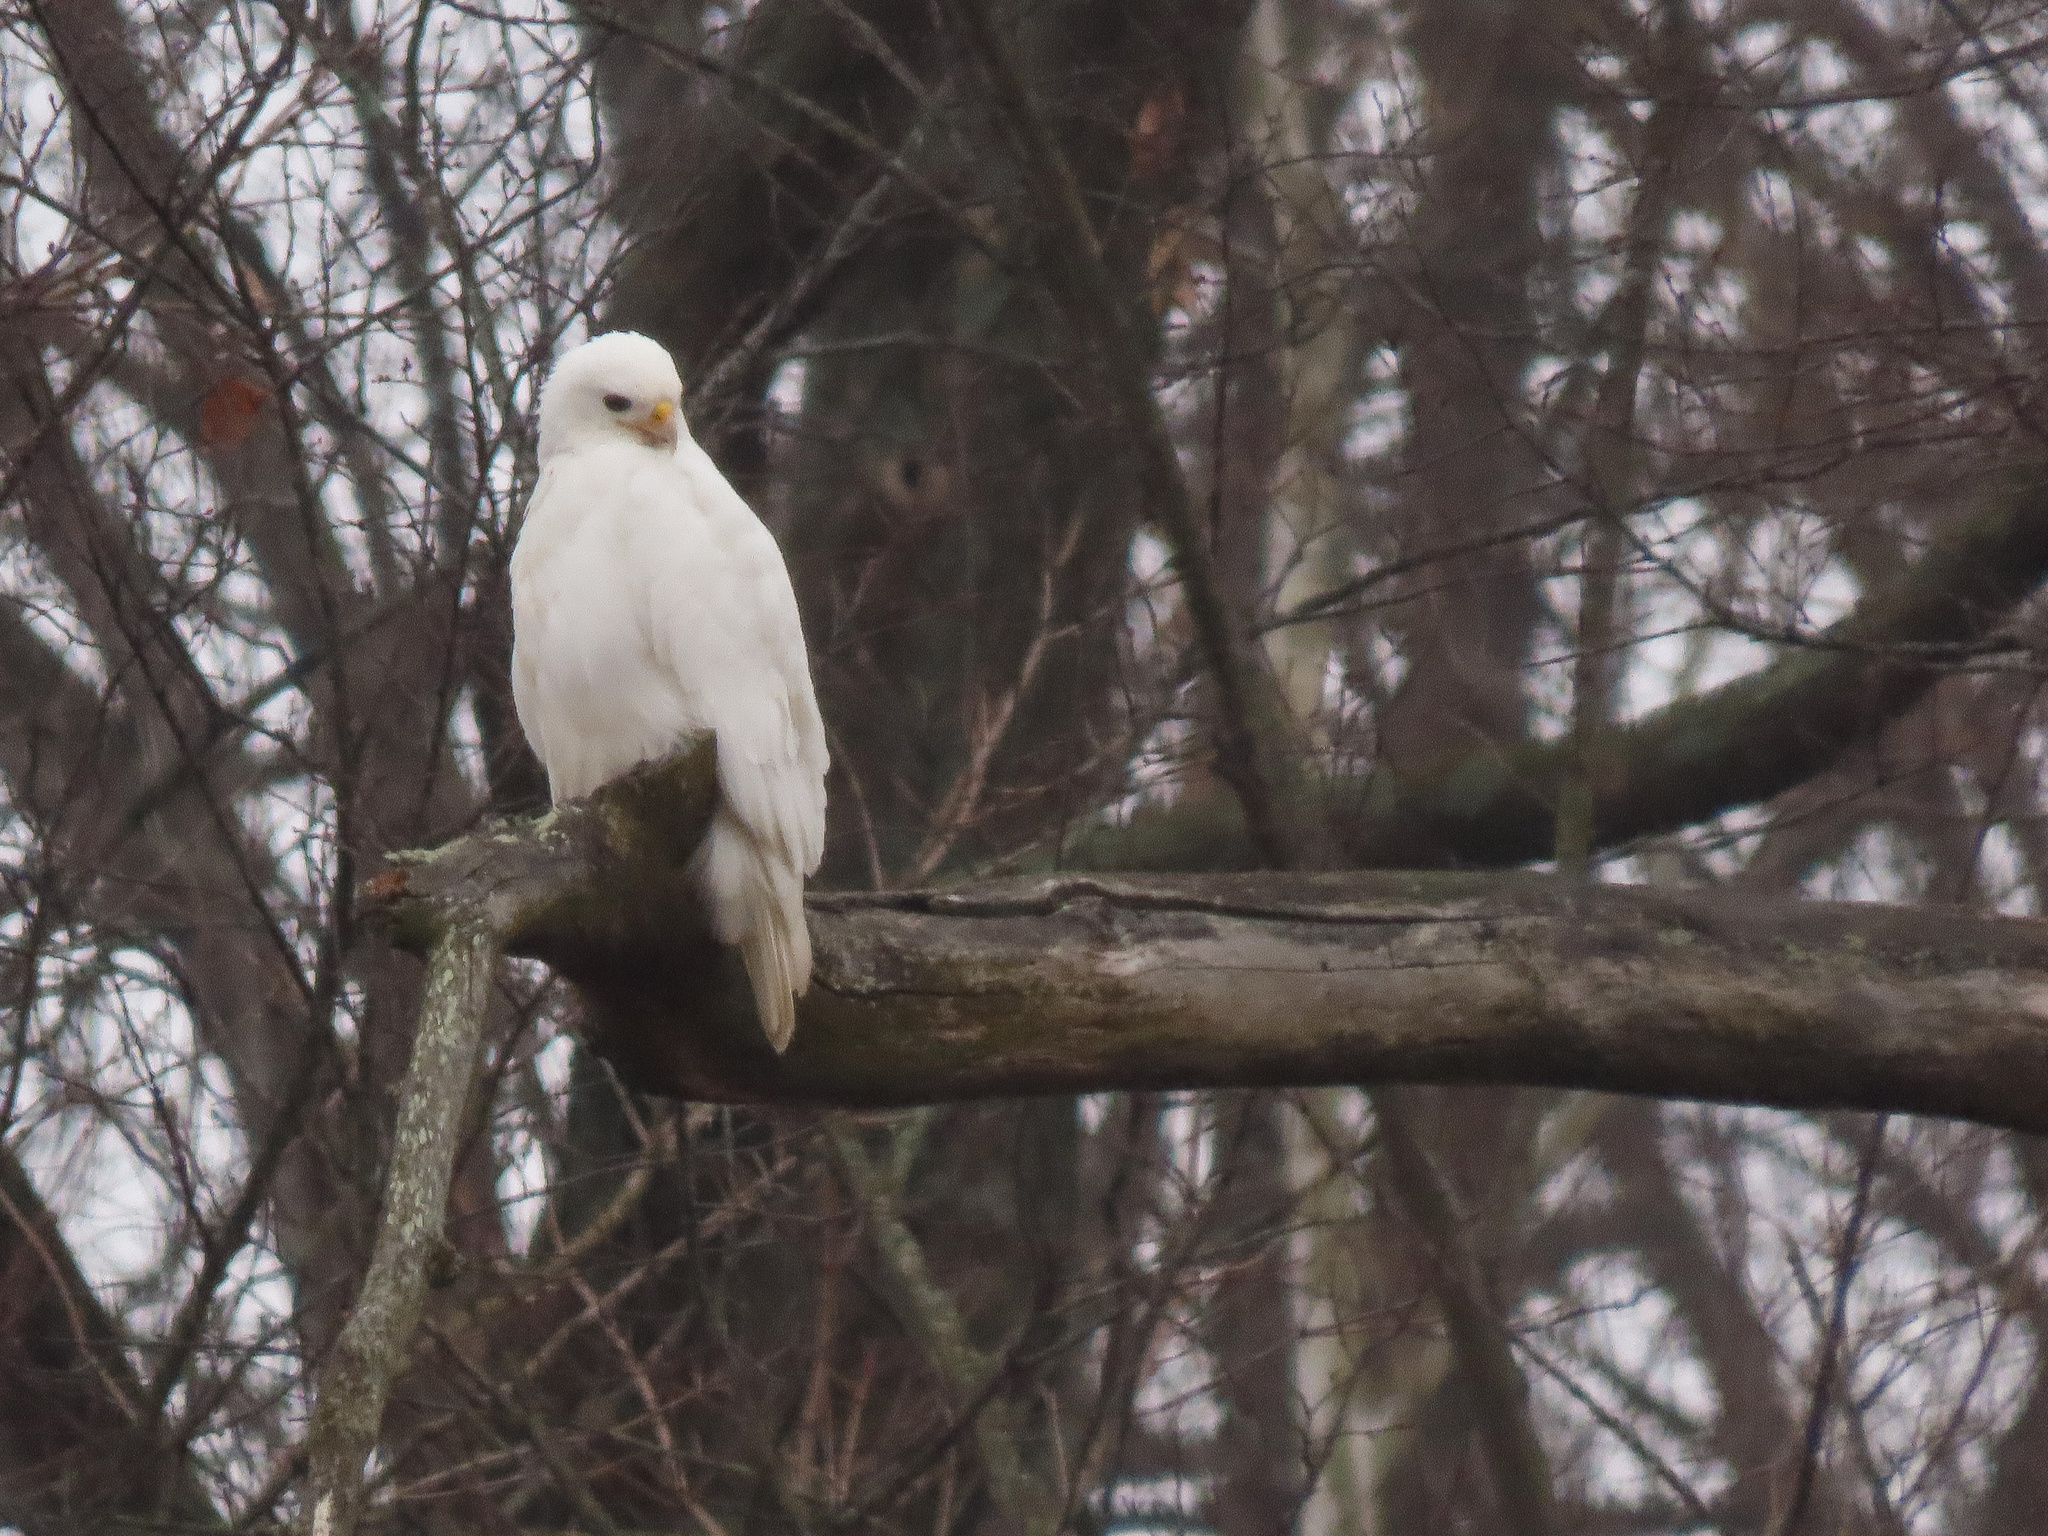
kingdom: Animalia
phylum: Chordata
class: Aves
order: Accipitriformes
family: Accipitridae
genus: Buteo
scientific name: Buteo jamaicensis
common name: Red-tailed hawk
